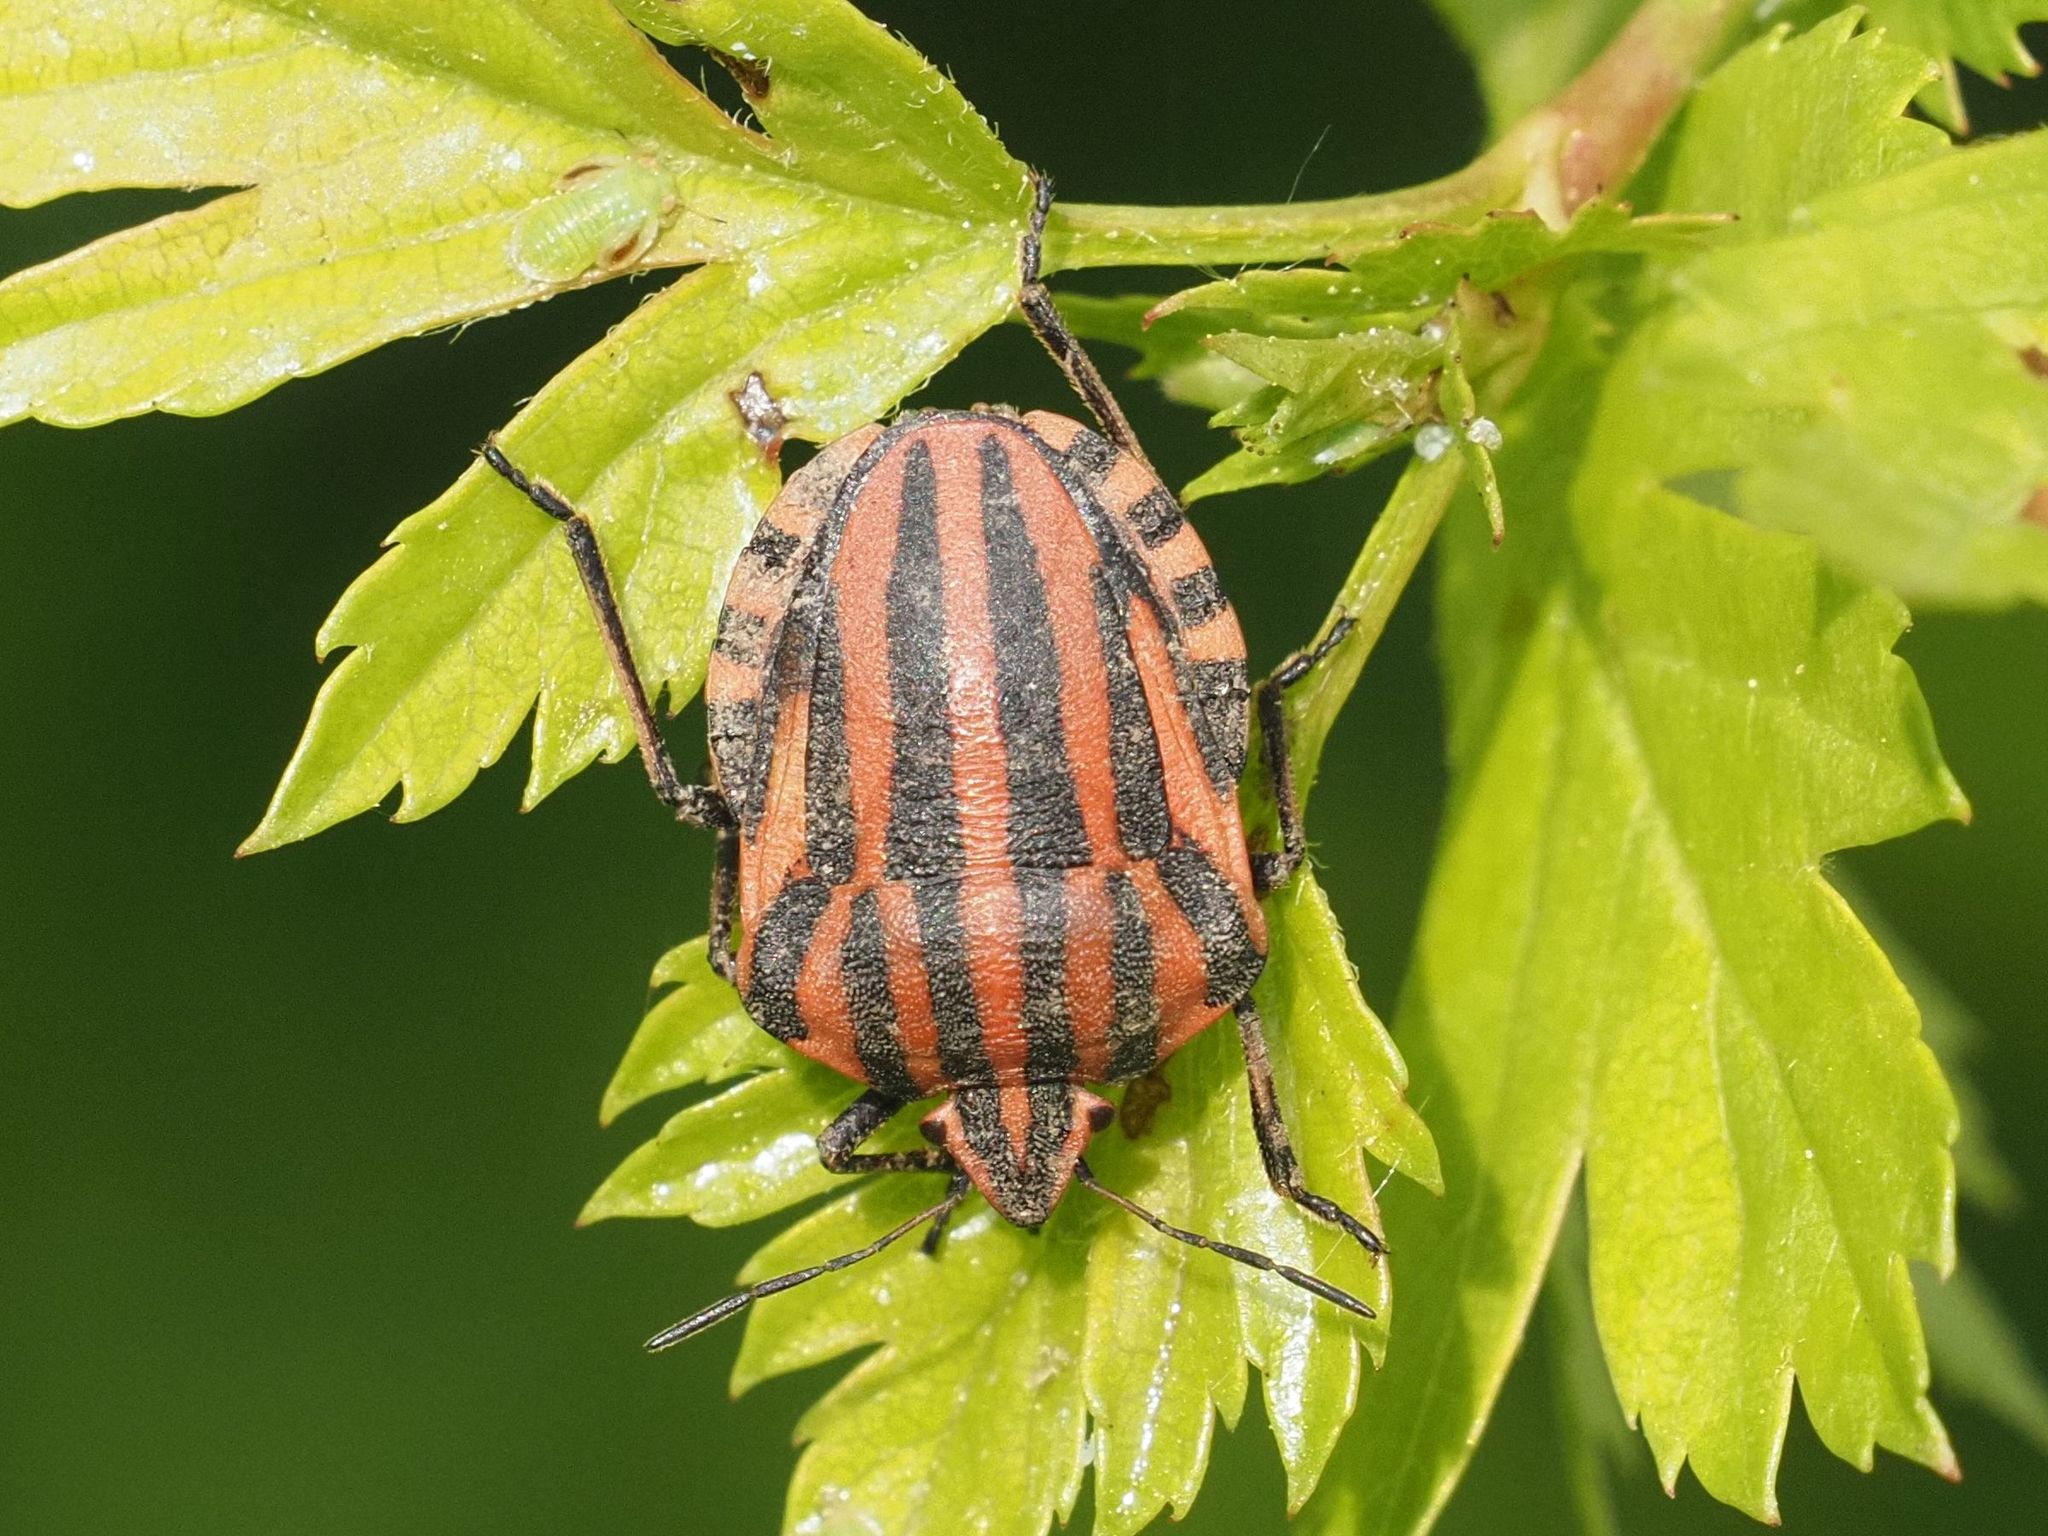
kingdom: Animalia
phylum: Arthropoda
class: Insecta
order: Hemiptera
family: Pentatomidae
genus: Graphosoma
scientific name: Graphosoma italicum
